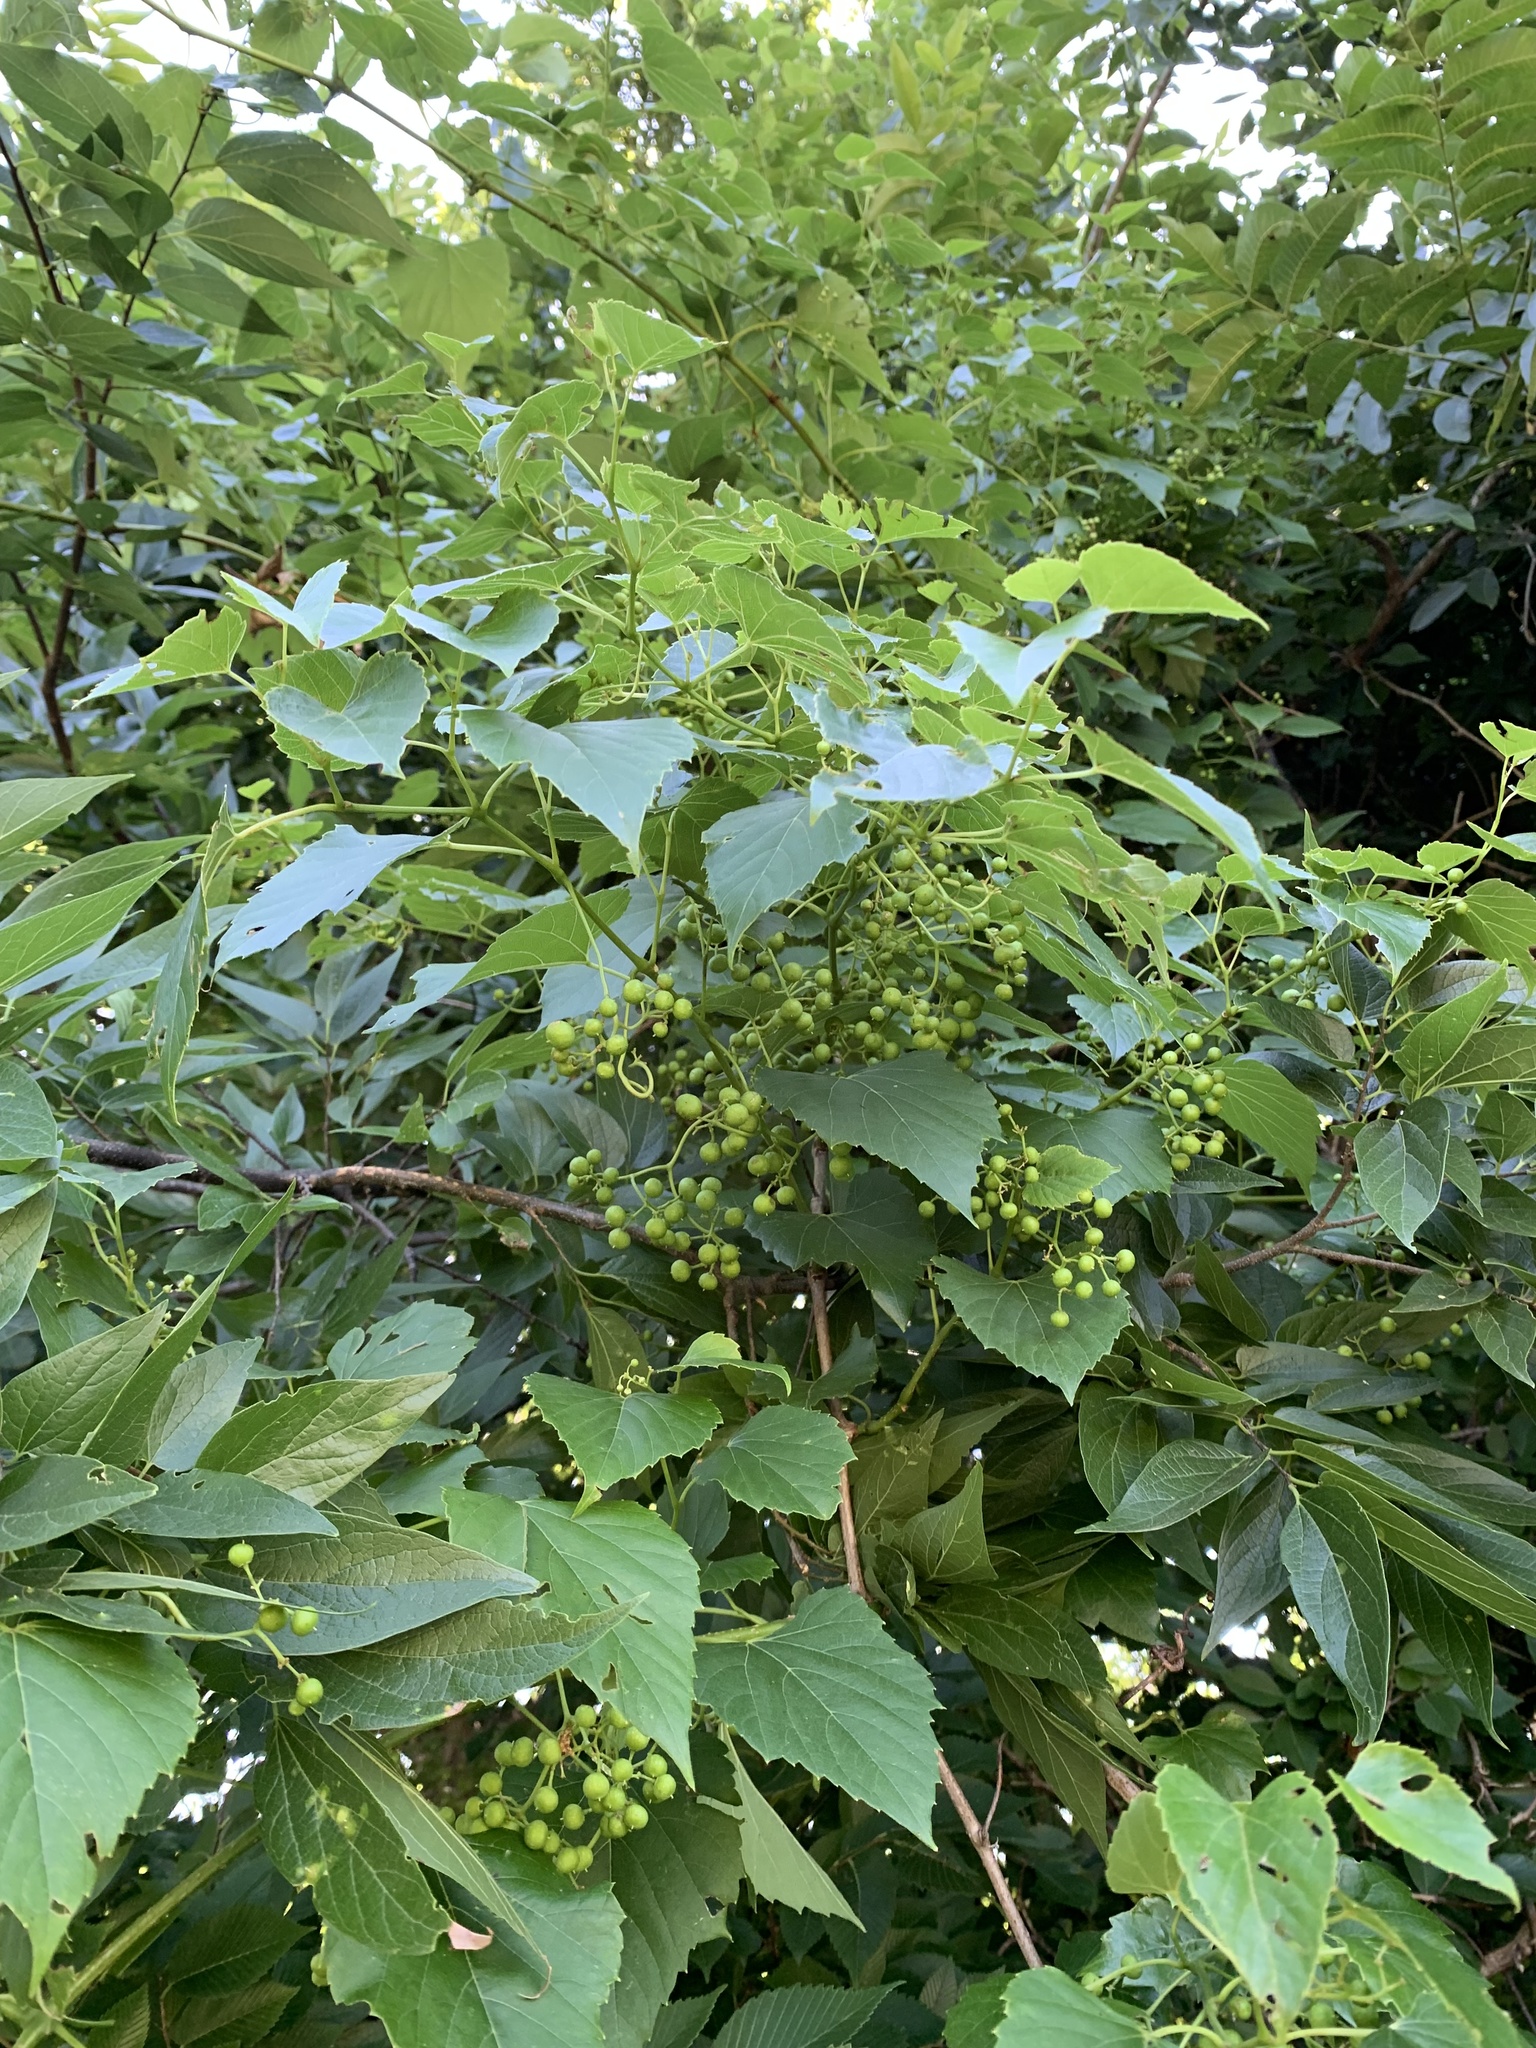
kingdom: Plantae
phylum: Tracheophyta
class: Magnoliopsida
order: Vitales
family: Vitaceae
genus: Ampelopsis
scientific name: Ampelopsis cordata
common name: Heart-leaf ampelopsis
